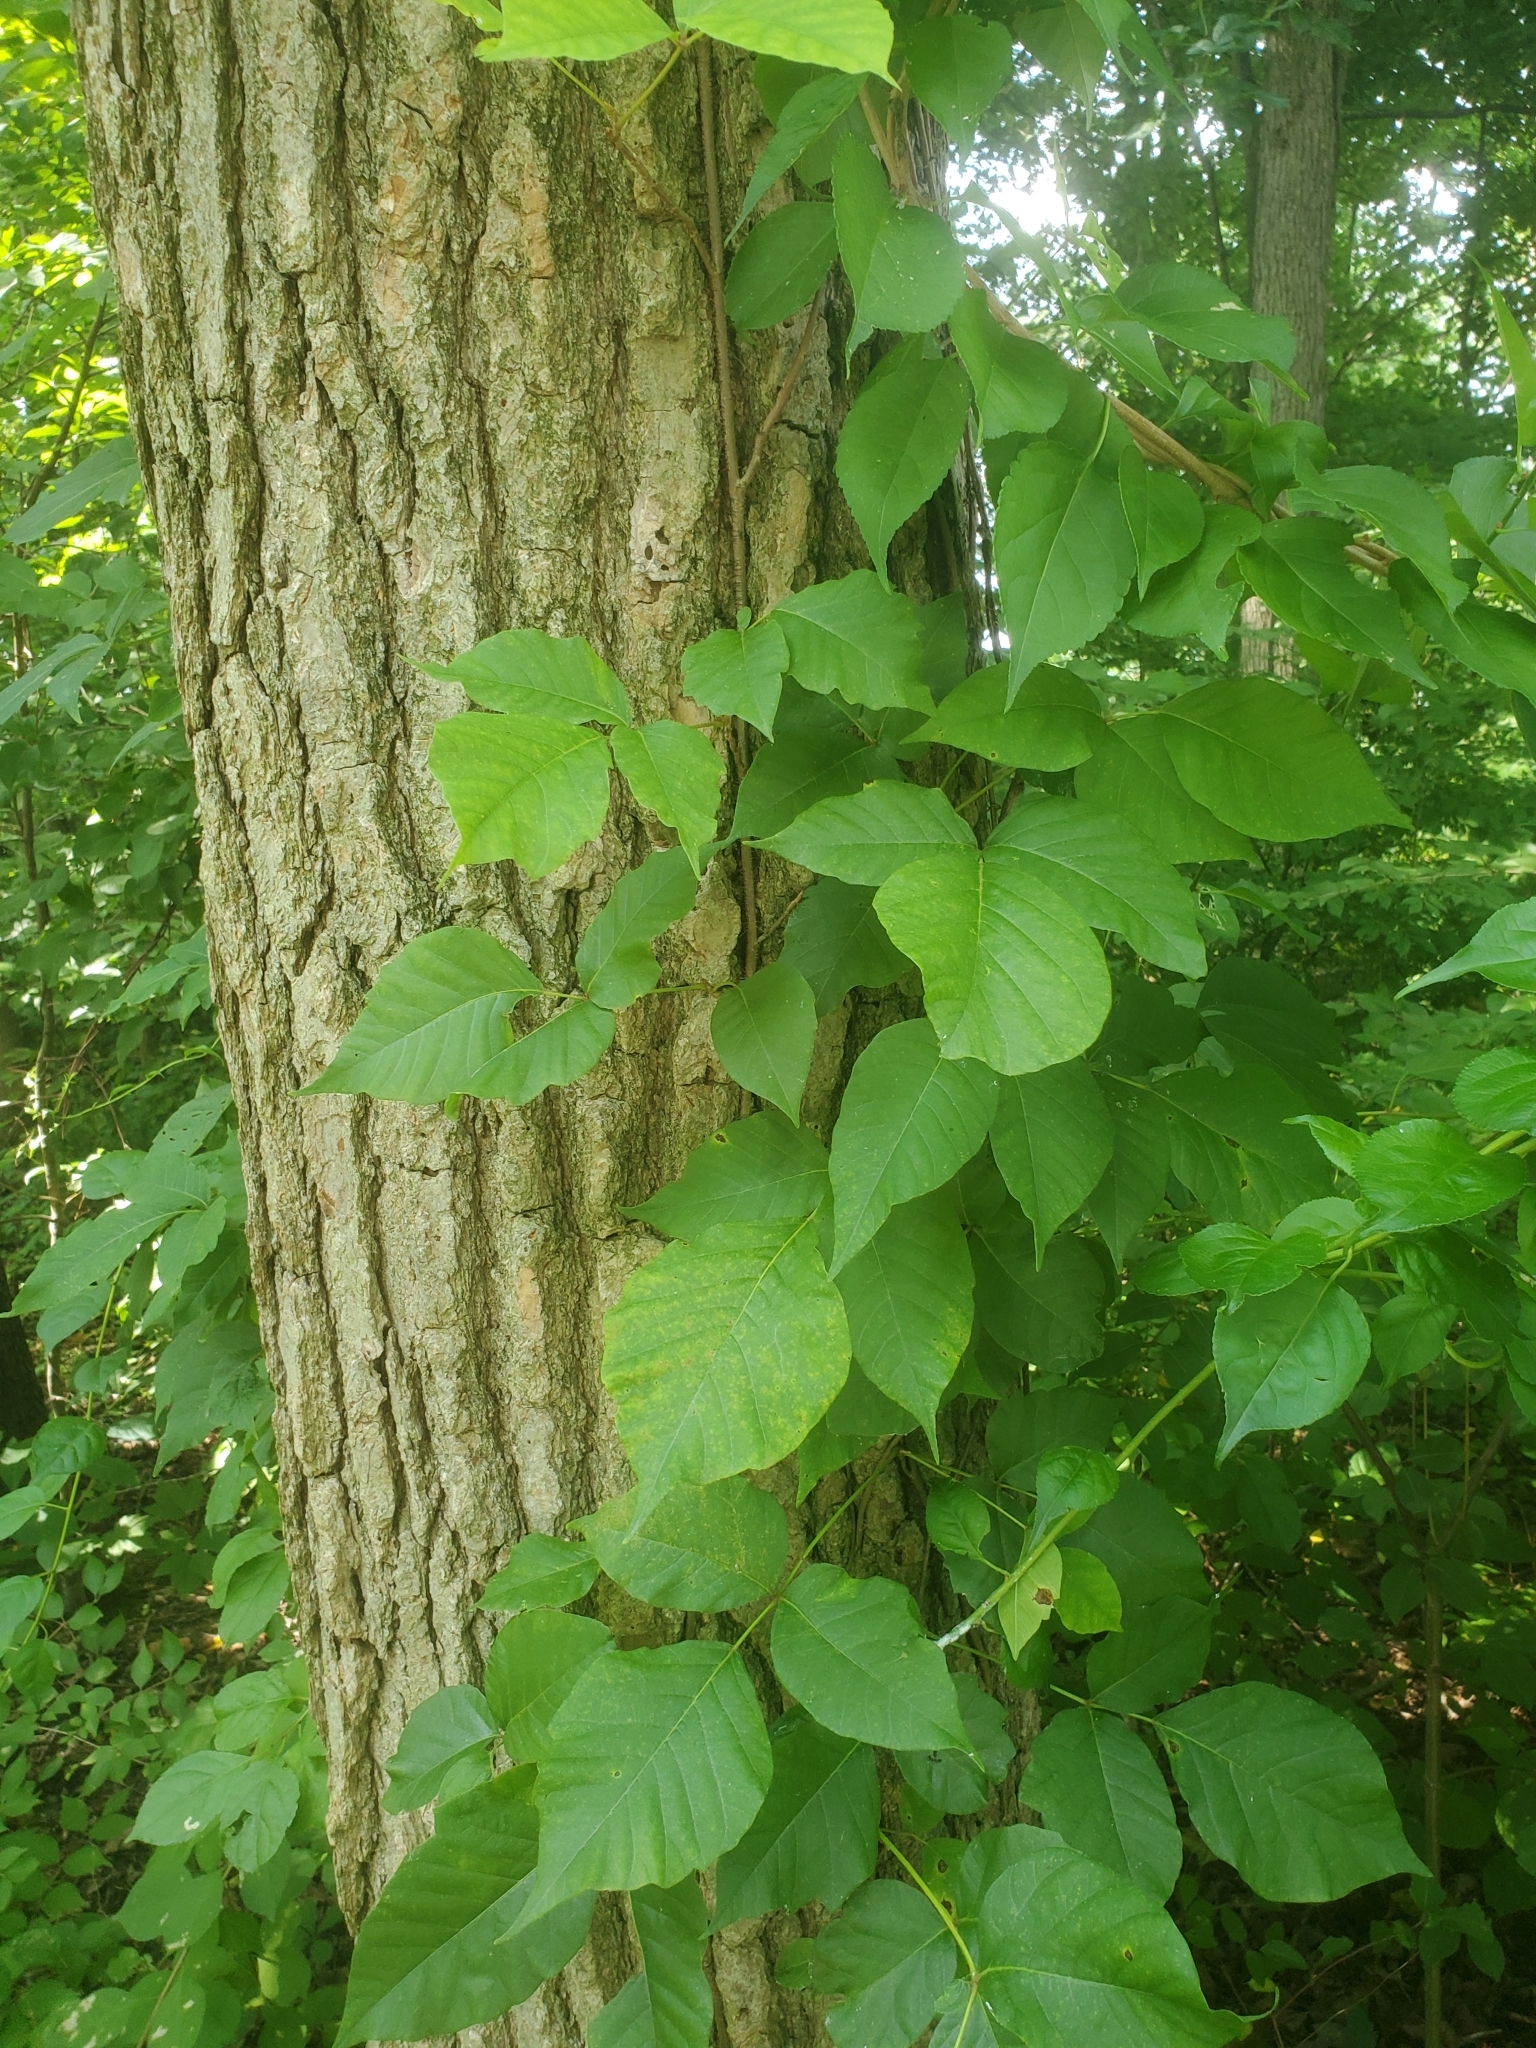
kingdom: Plantae
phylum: Tracheophyta
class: Magnoliopsida
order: Sapindales
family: Anacardiaceae
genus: Toxicodendron
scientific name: Toxicodendron radicans
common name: Poison ivy
